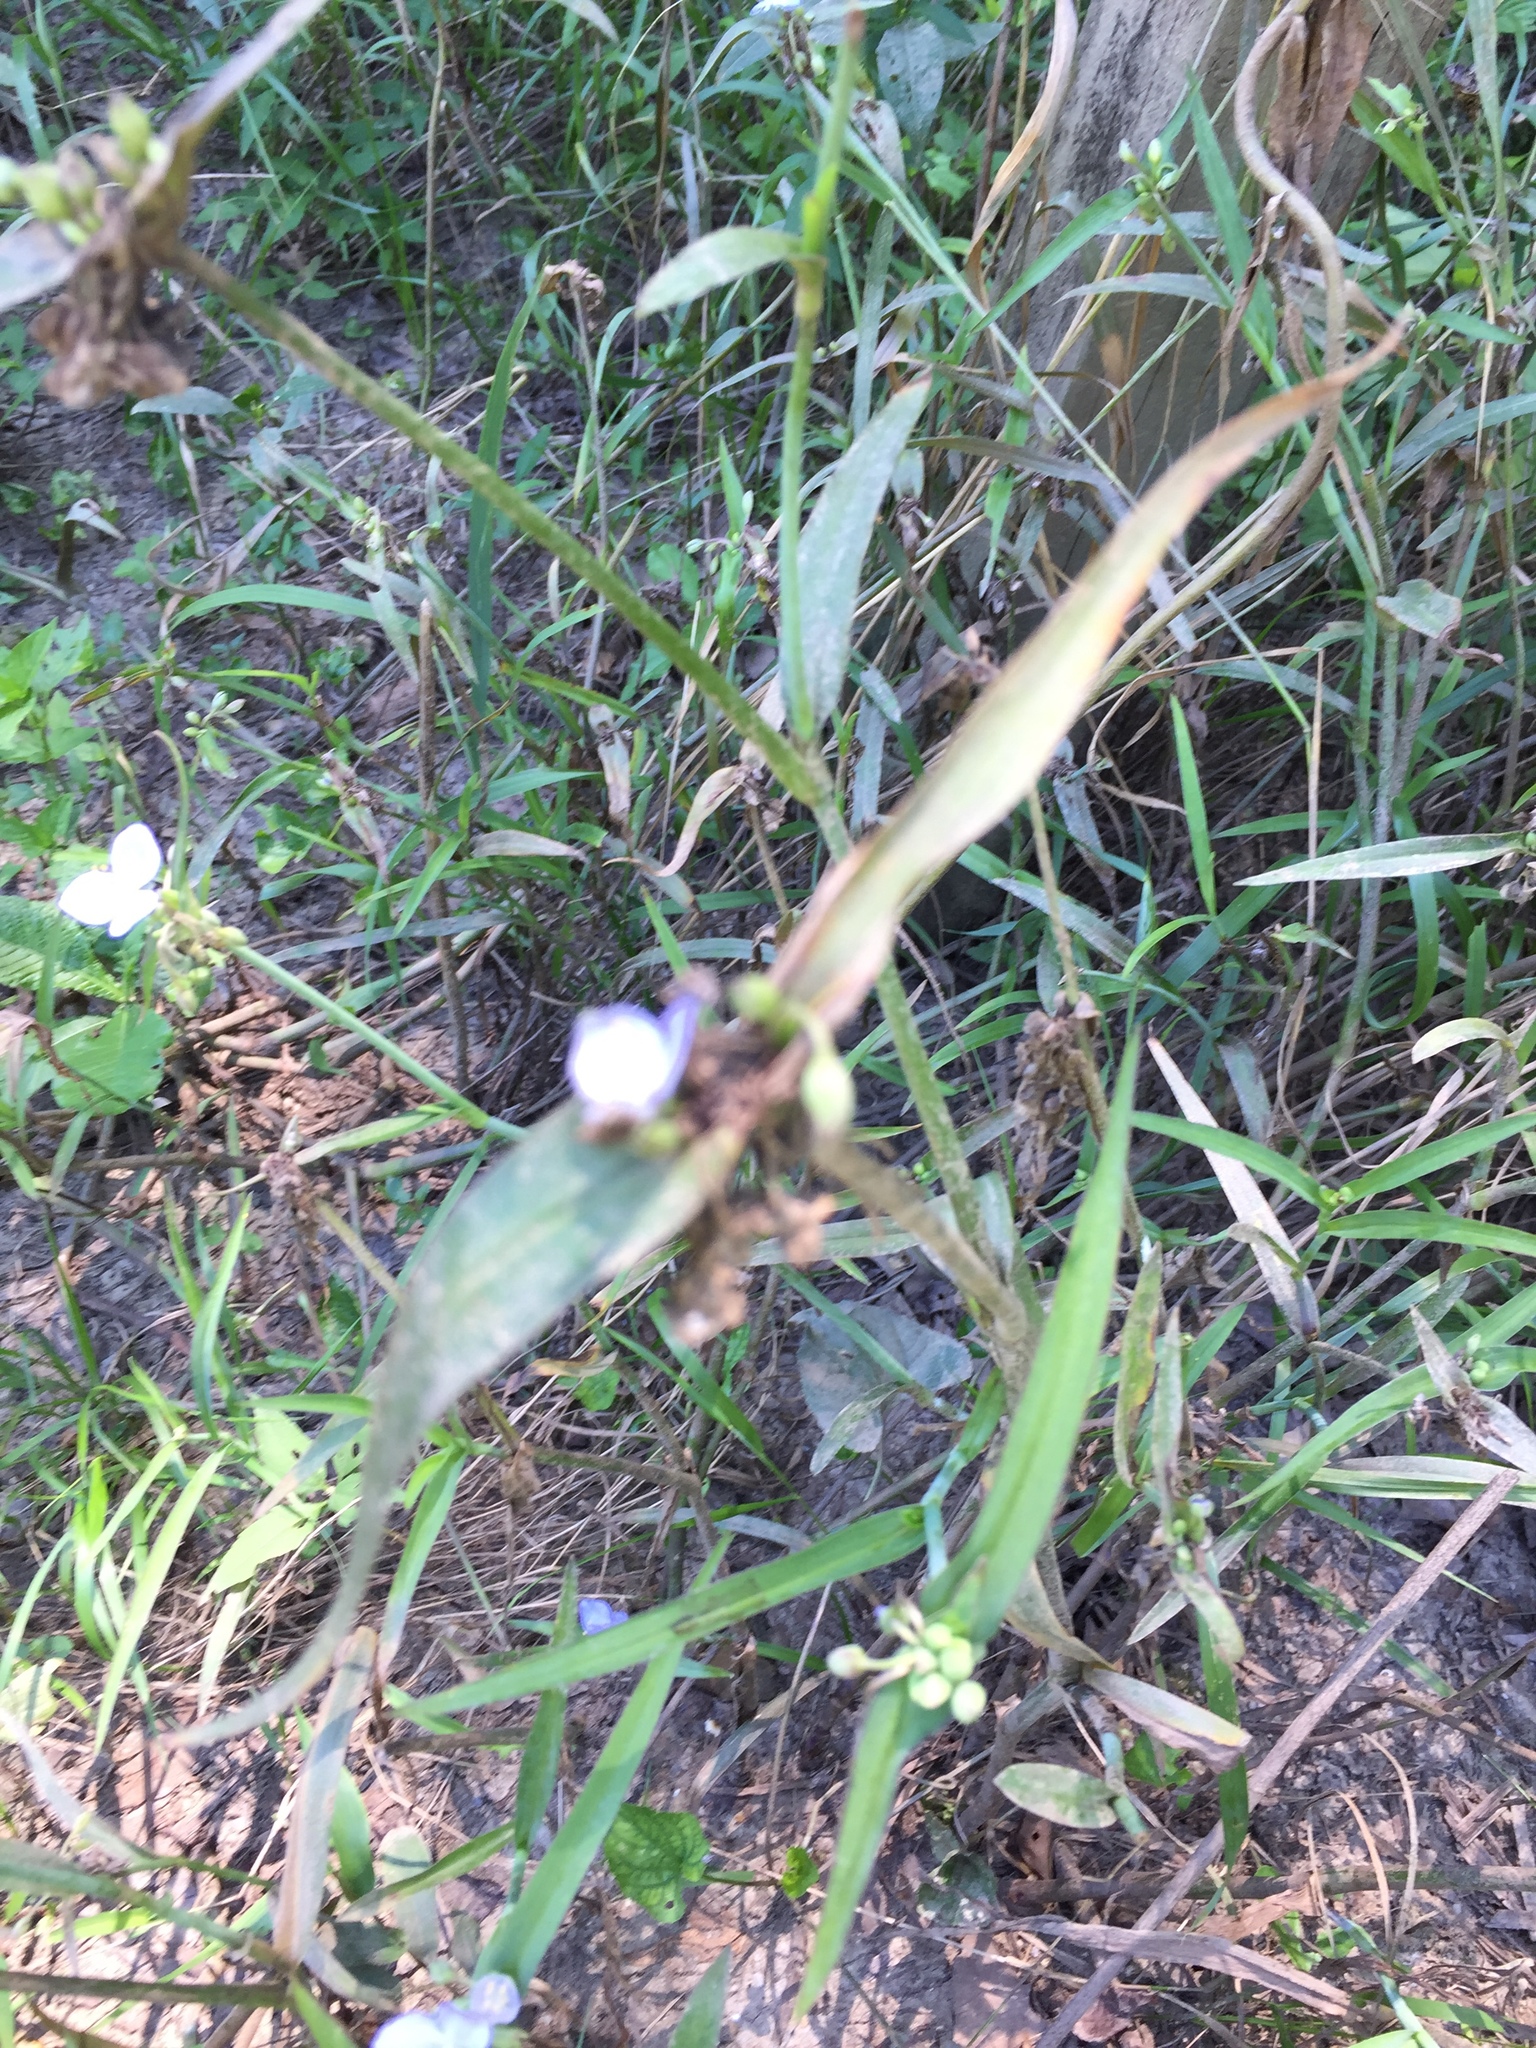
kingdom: Plantae
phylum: Tracheophyta
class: Liliopsida
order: Commelinales
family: Commelinaceae
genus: Tradescantia
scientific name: Tradescantia ohiensis
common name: Ohio spiderwort
